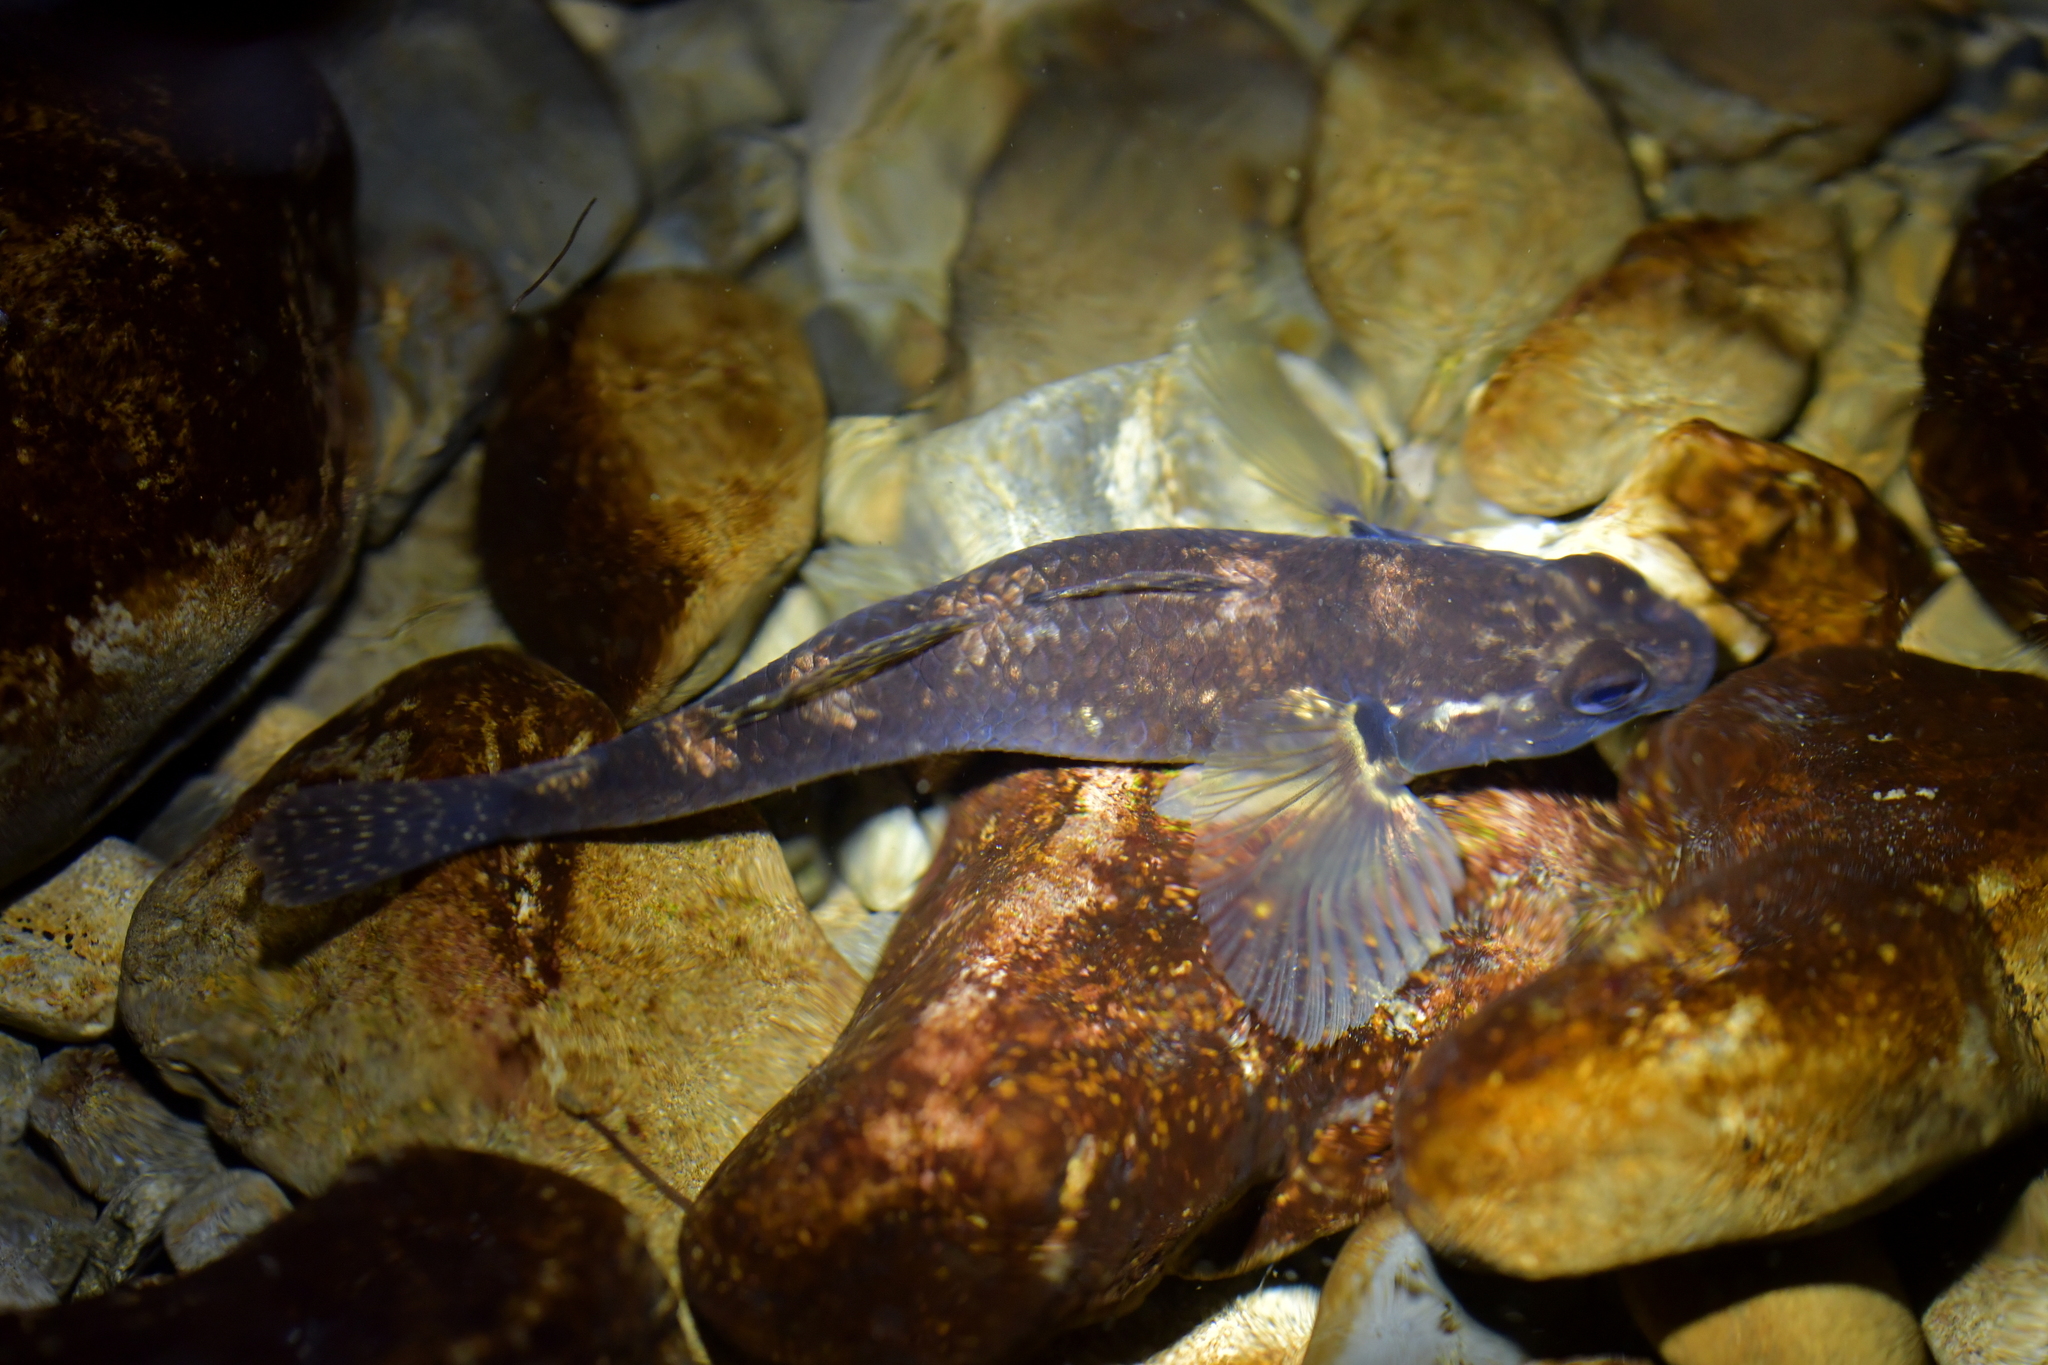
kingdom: Animalia
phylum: Chordata
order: Perciformes
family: Eleotridae
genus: Gobiomorphus
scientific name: Gobiomorphus cotidianus
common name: Common bully
